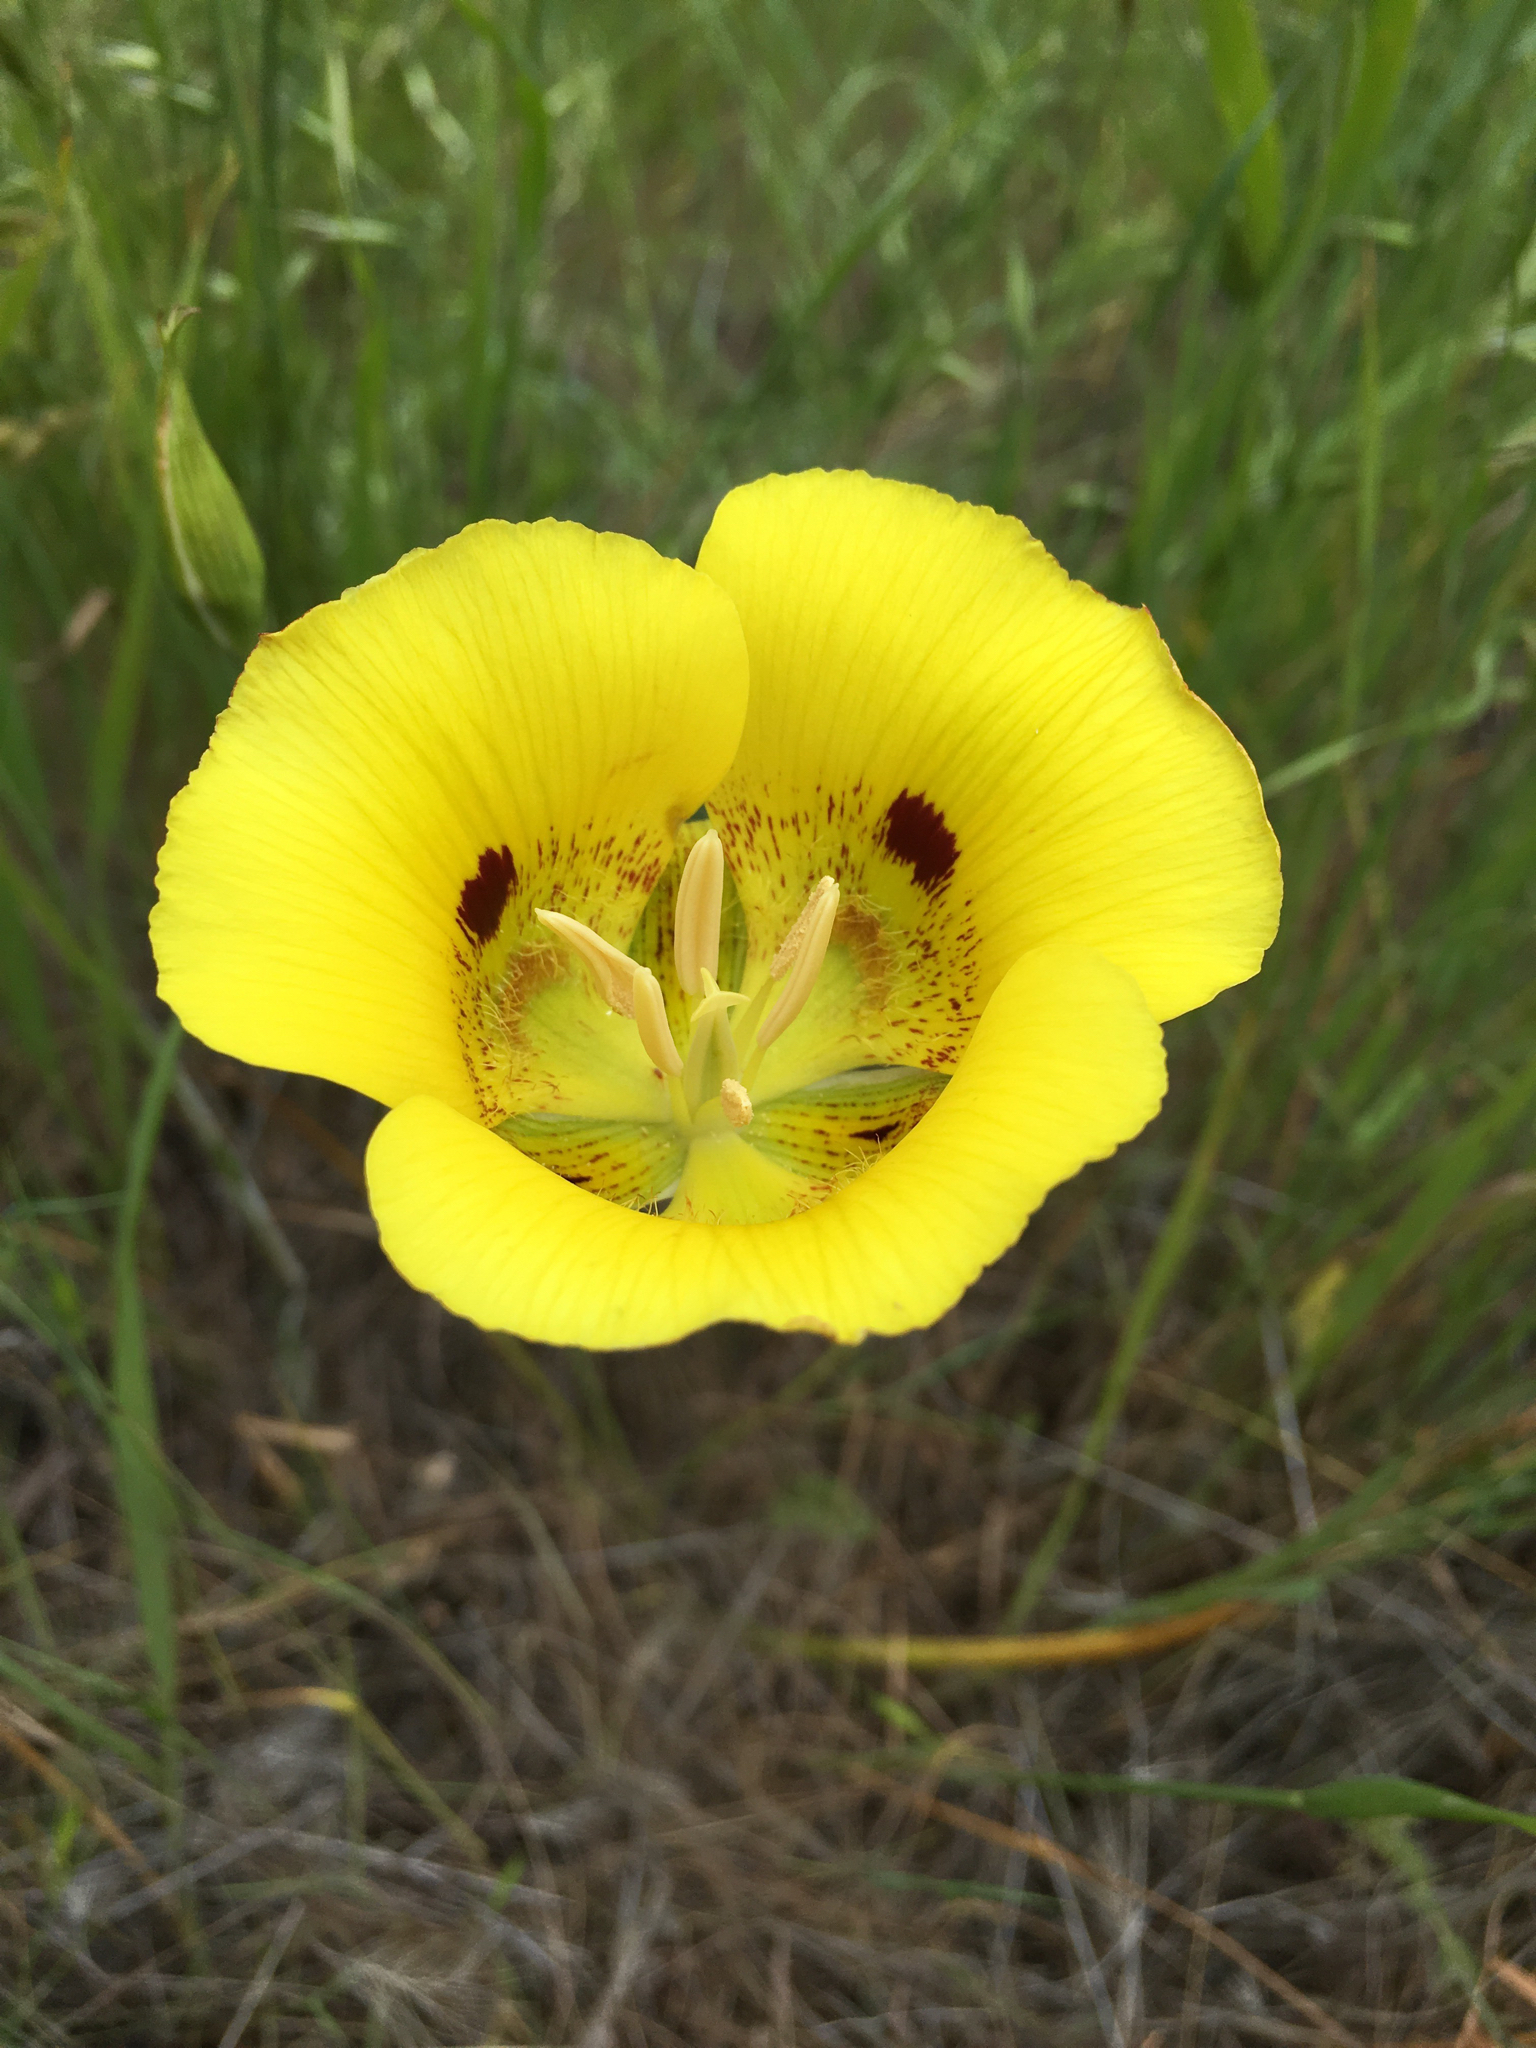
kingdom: Plantae
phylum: Tracheophyta
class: Liliopsida
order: Liliales
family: Liliaceae
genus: Calochortus
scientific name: Calochortus luteus
